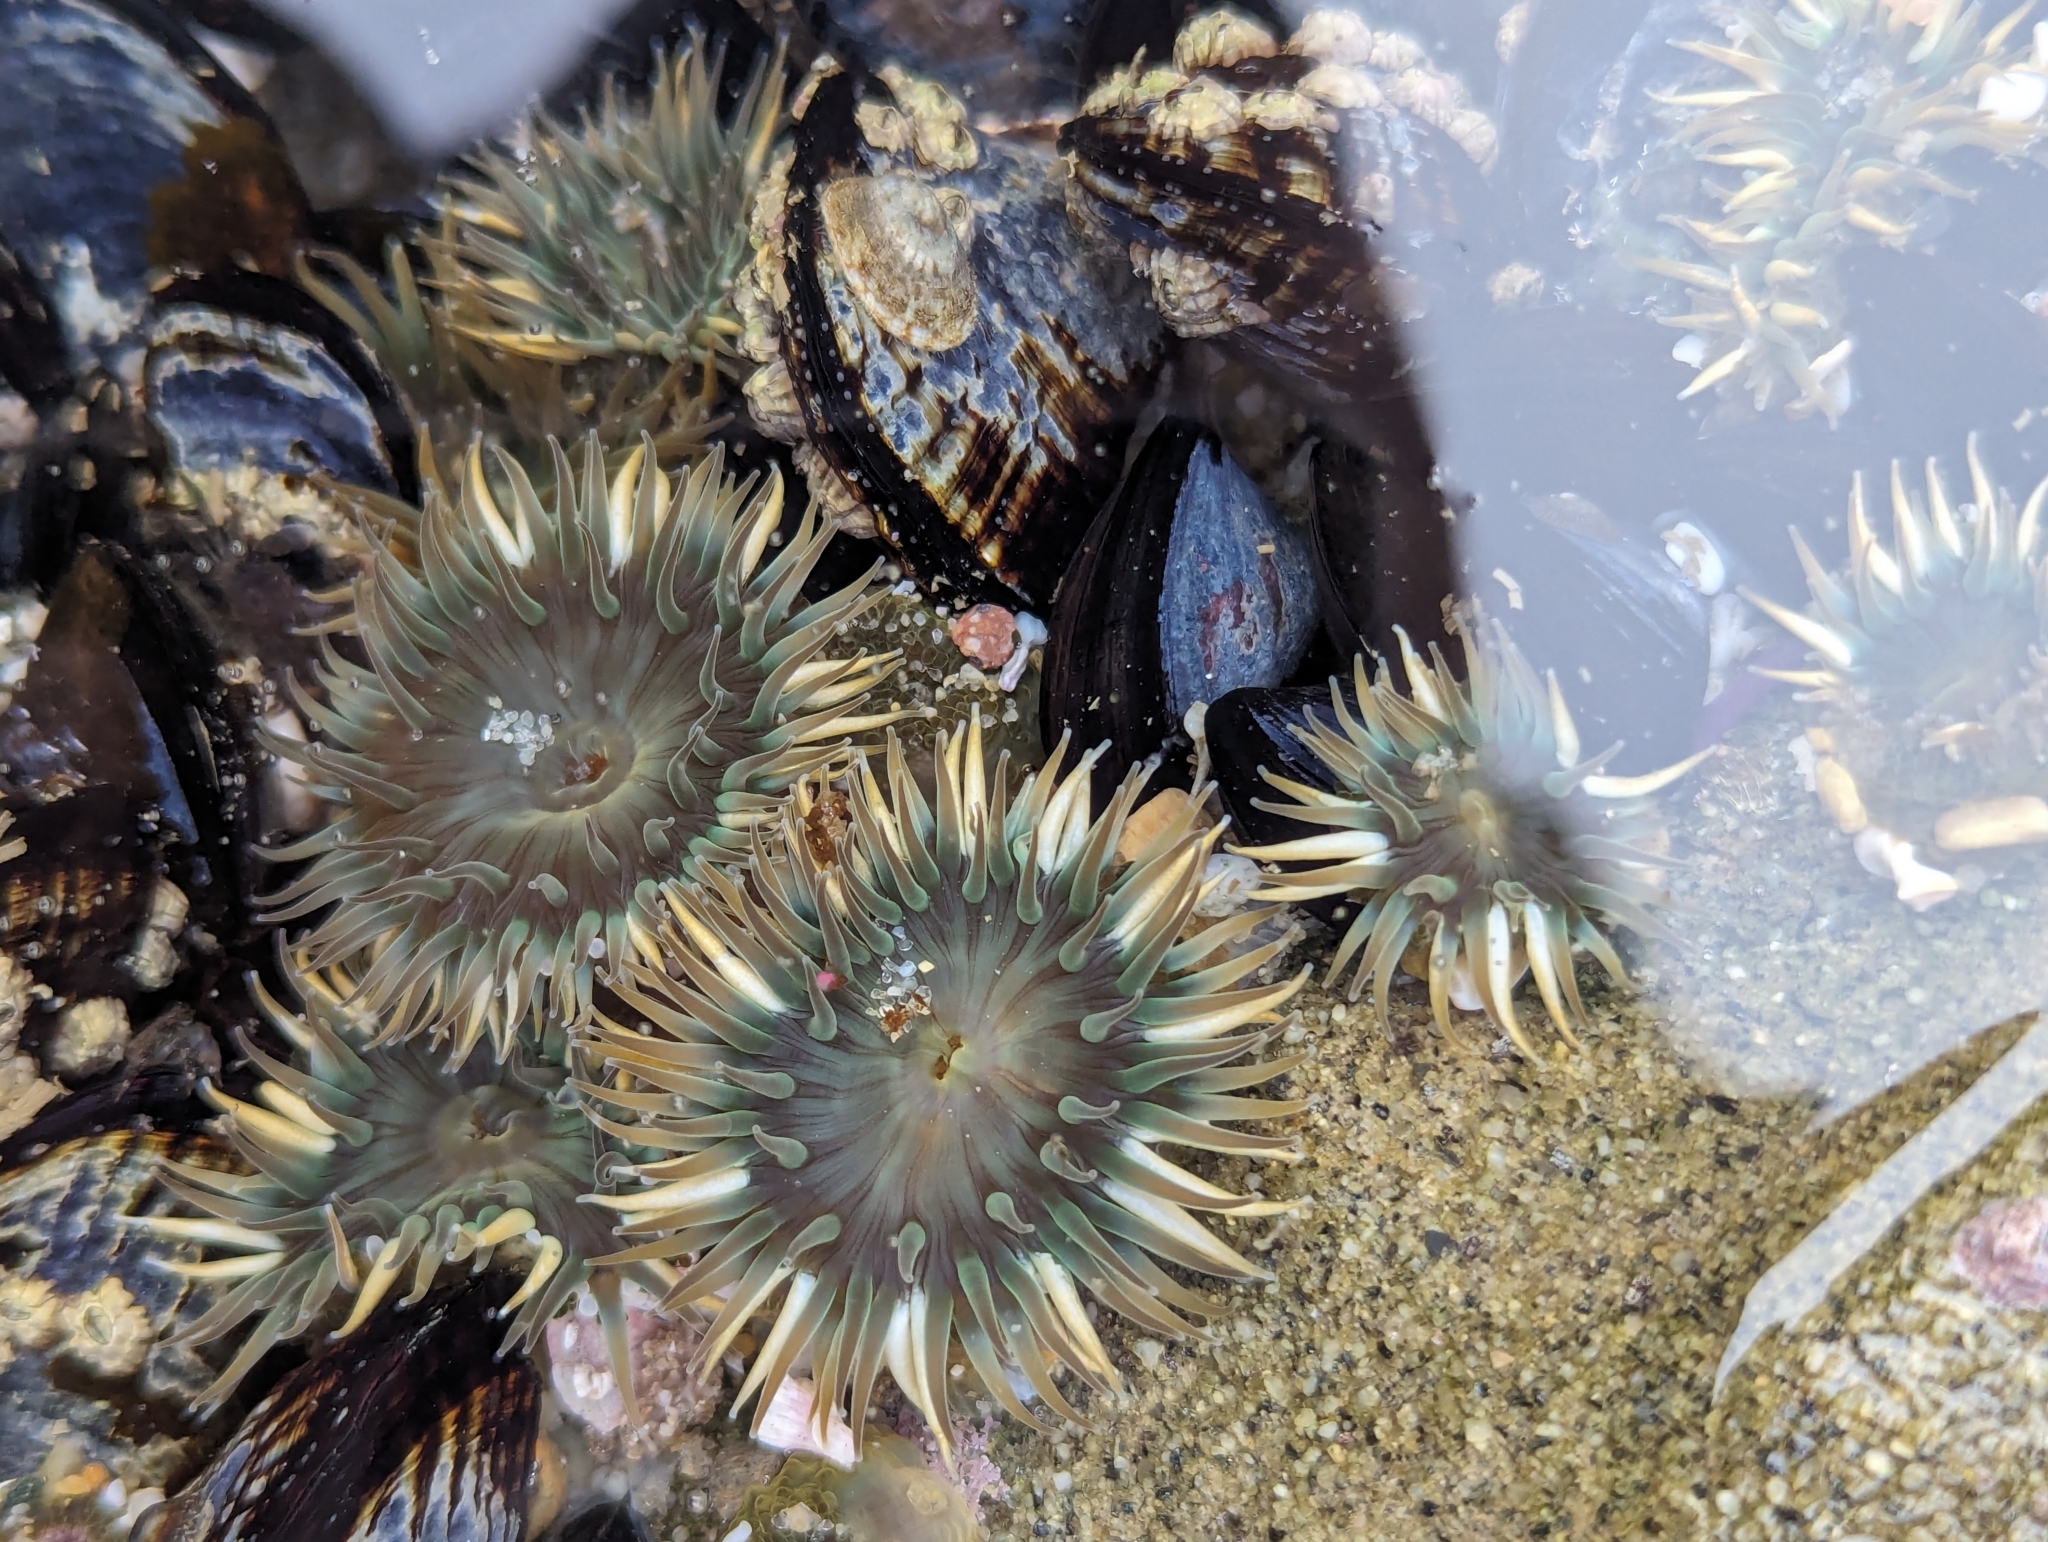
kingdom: Animalia
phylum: Cnidaria
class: Anthozoa
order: Actiniaria
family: Actiniidae
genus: Anthopleura
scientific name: Anthopleura elegantissima
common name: Clonal anemone
